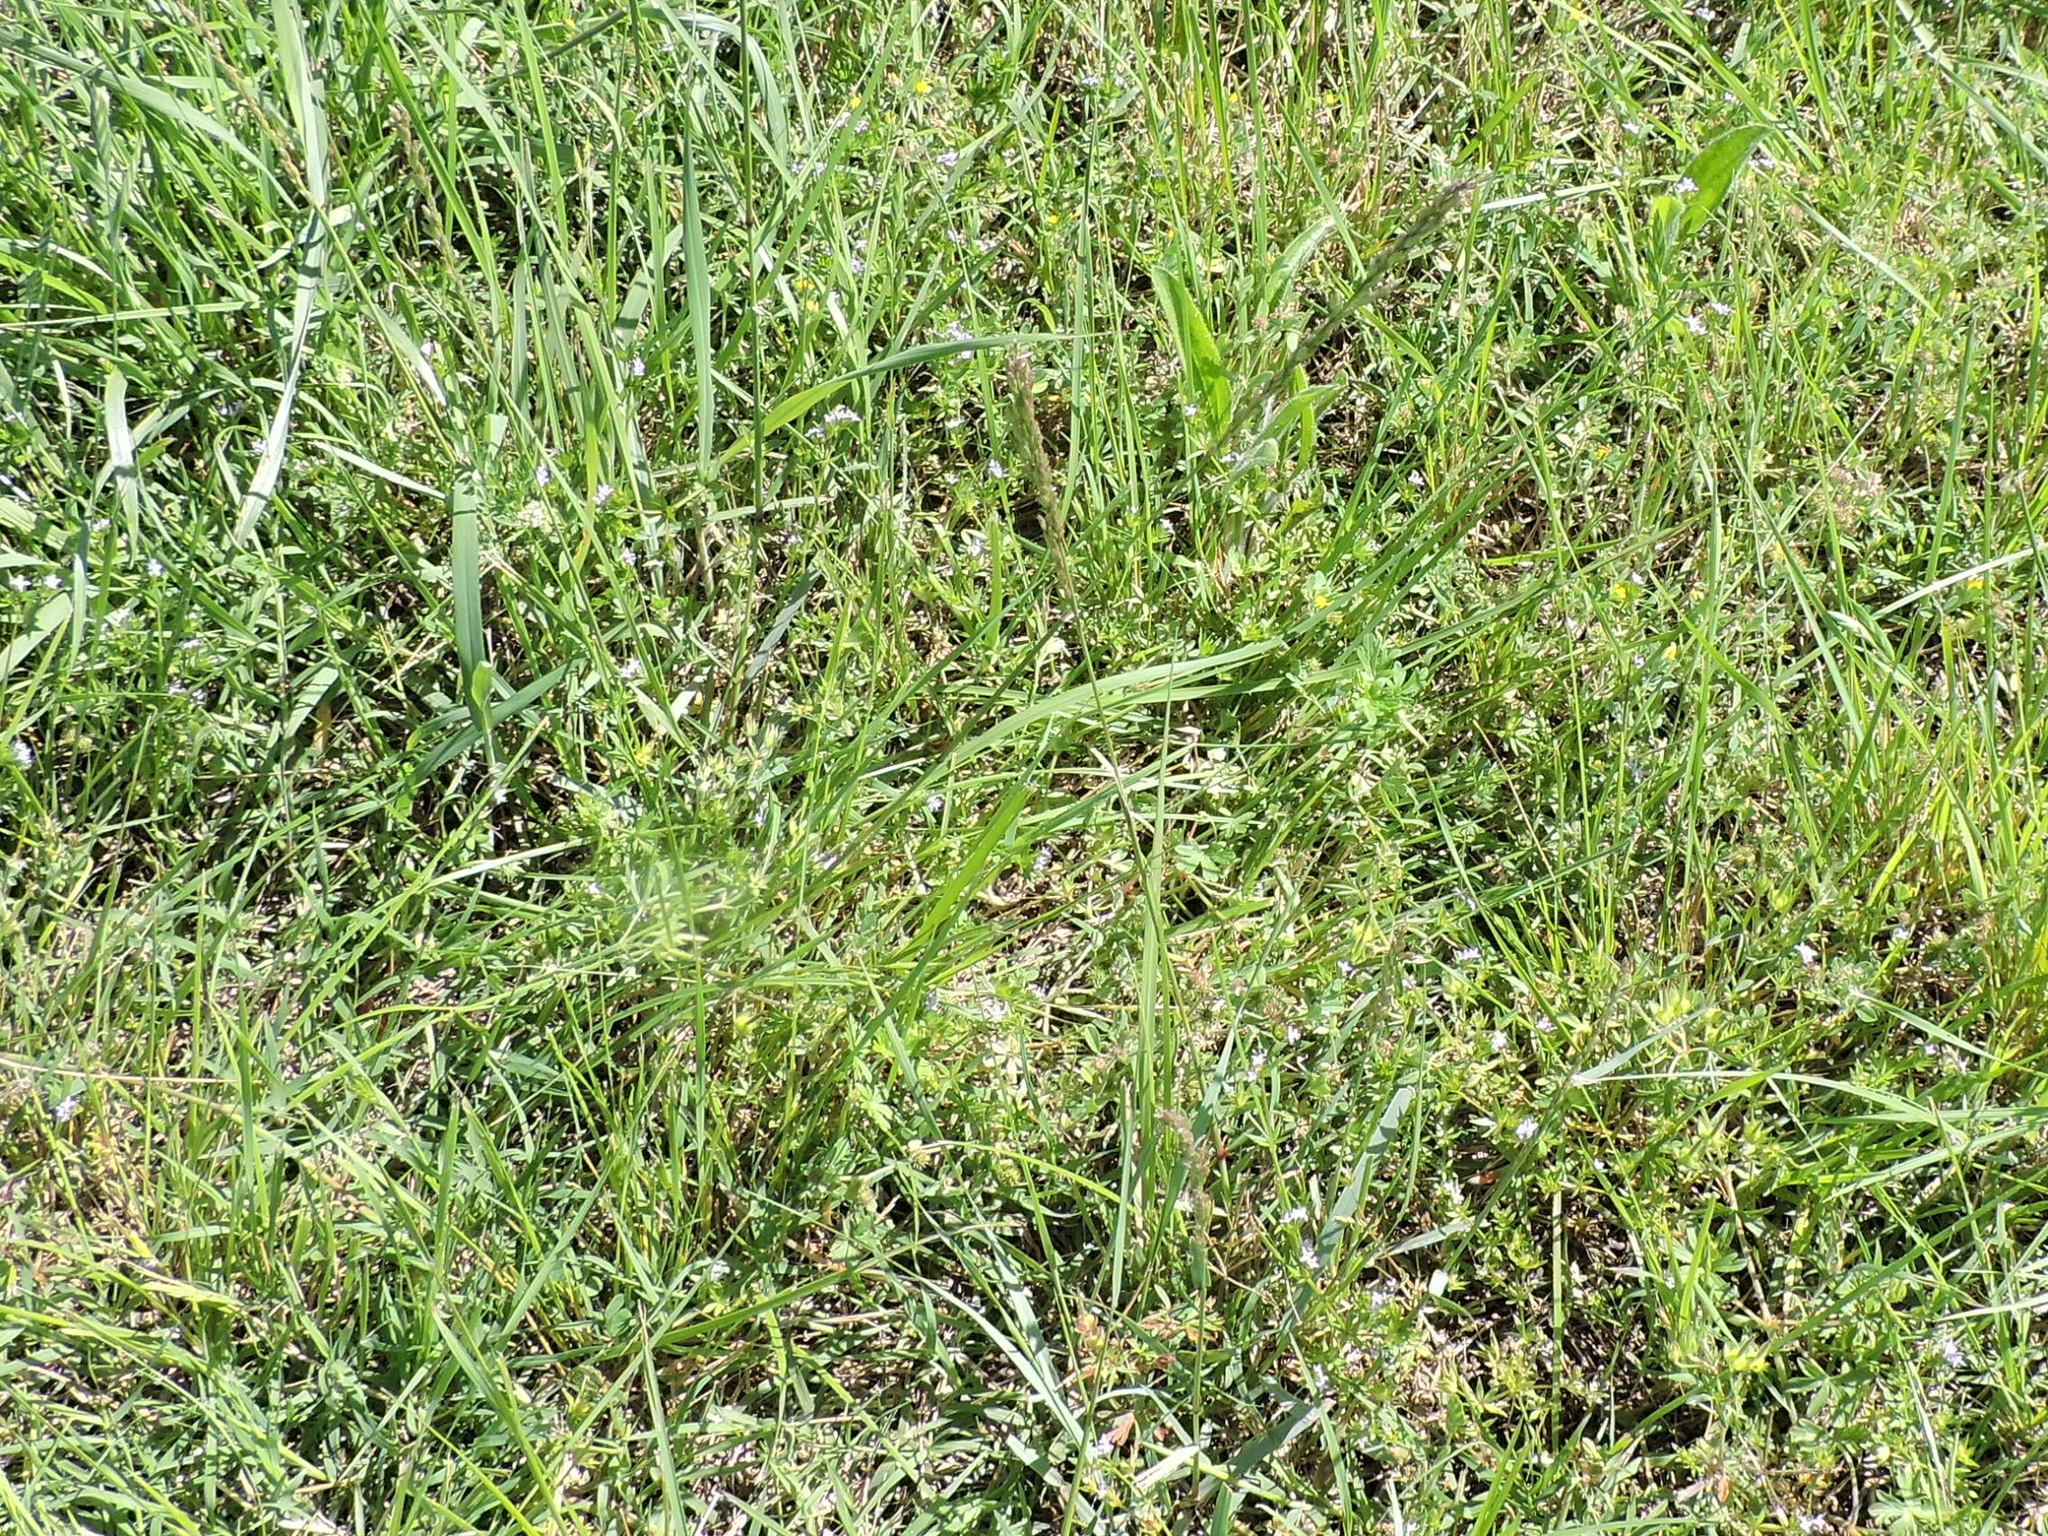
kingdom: Plantae
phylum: Tracheophyta
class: Liliopsida
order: Poales
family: Poaceae
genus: Tridens
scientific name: Tridens albescens
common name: White tridens
